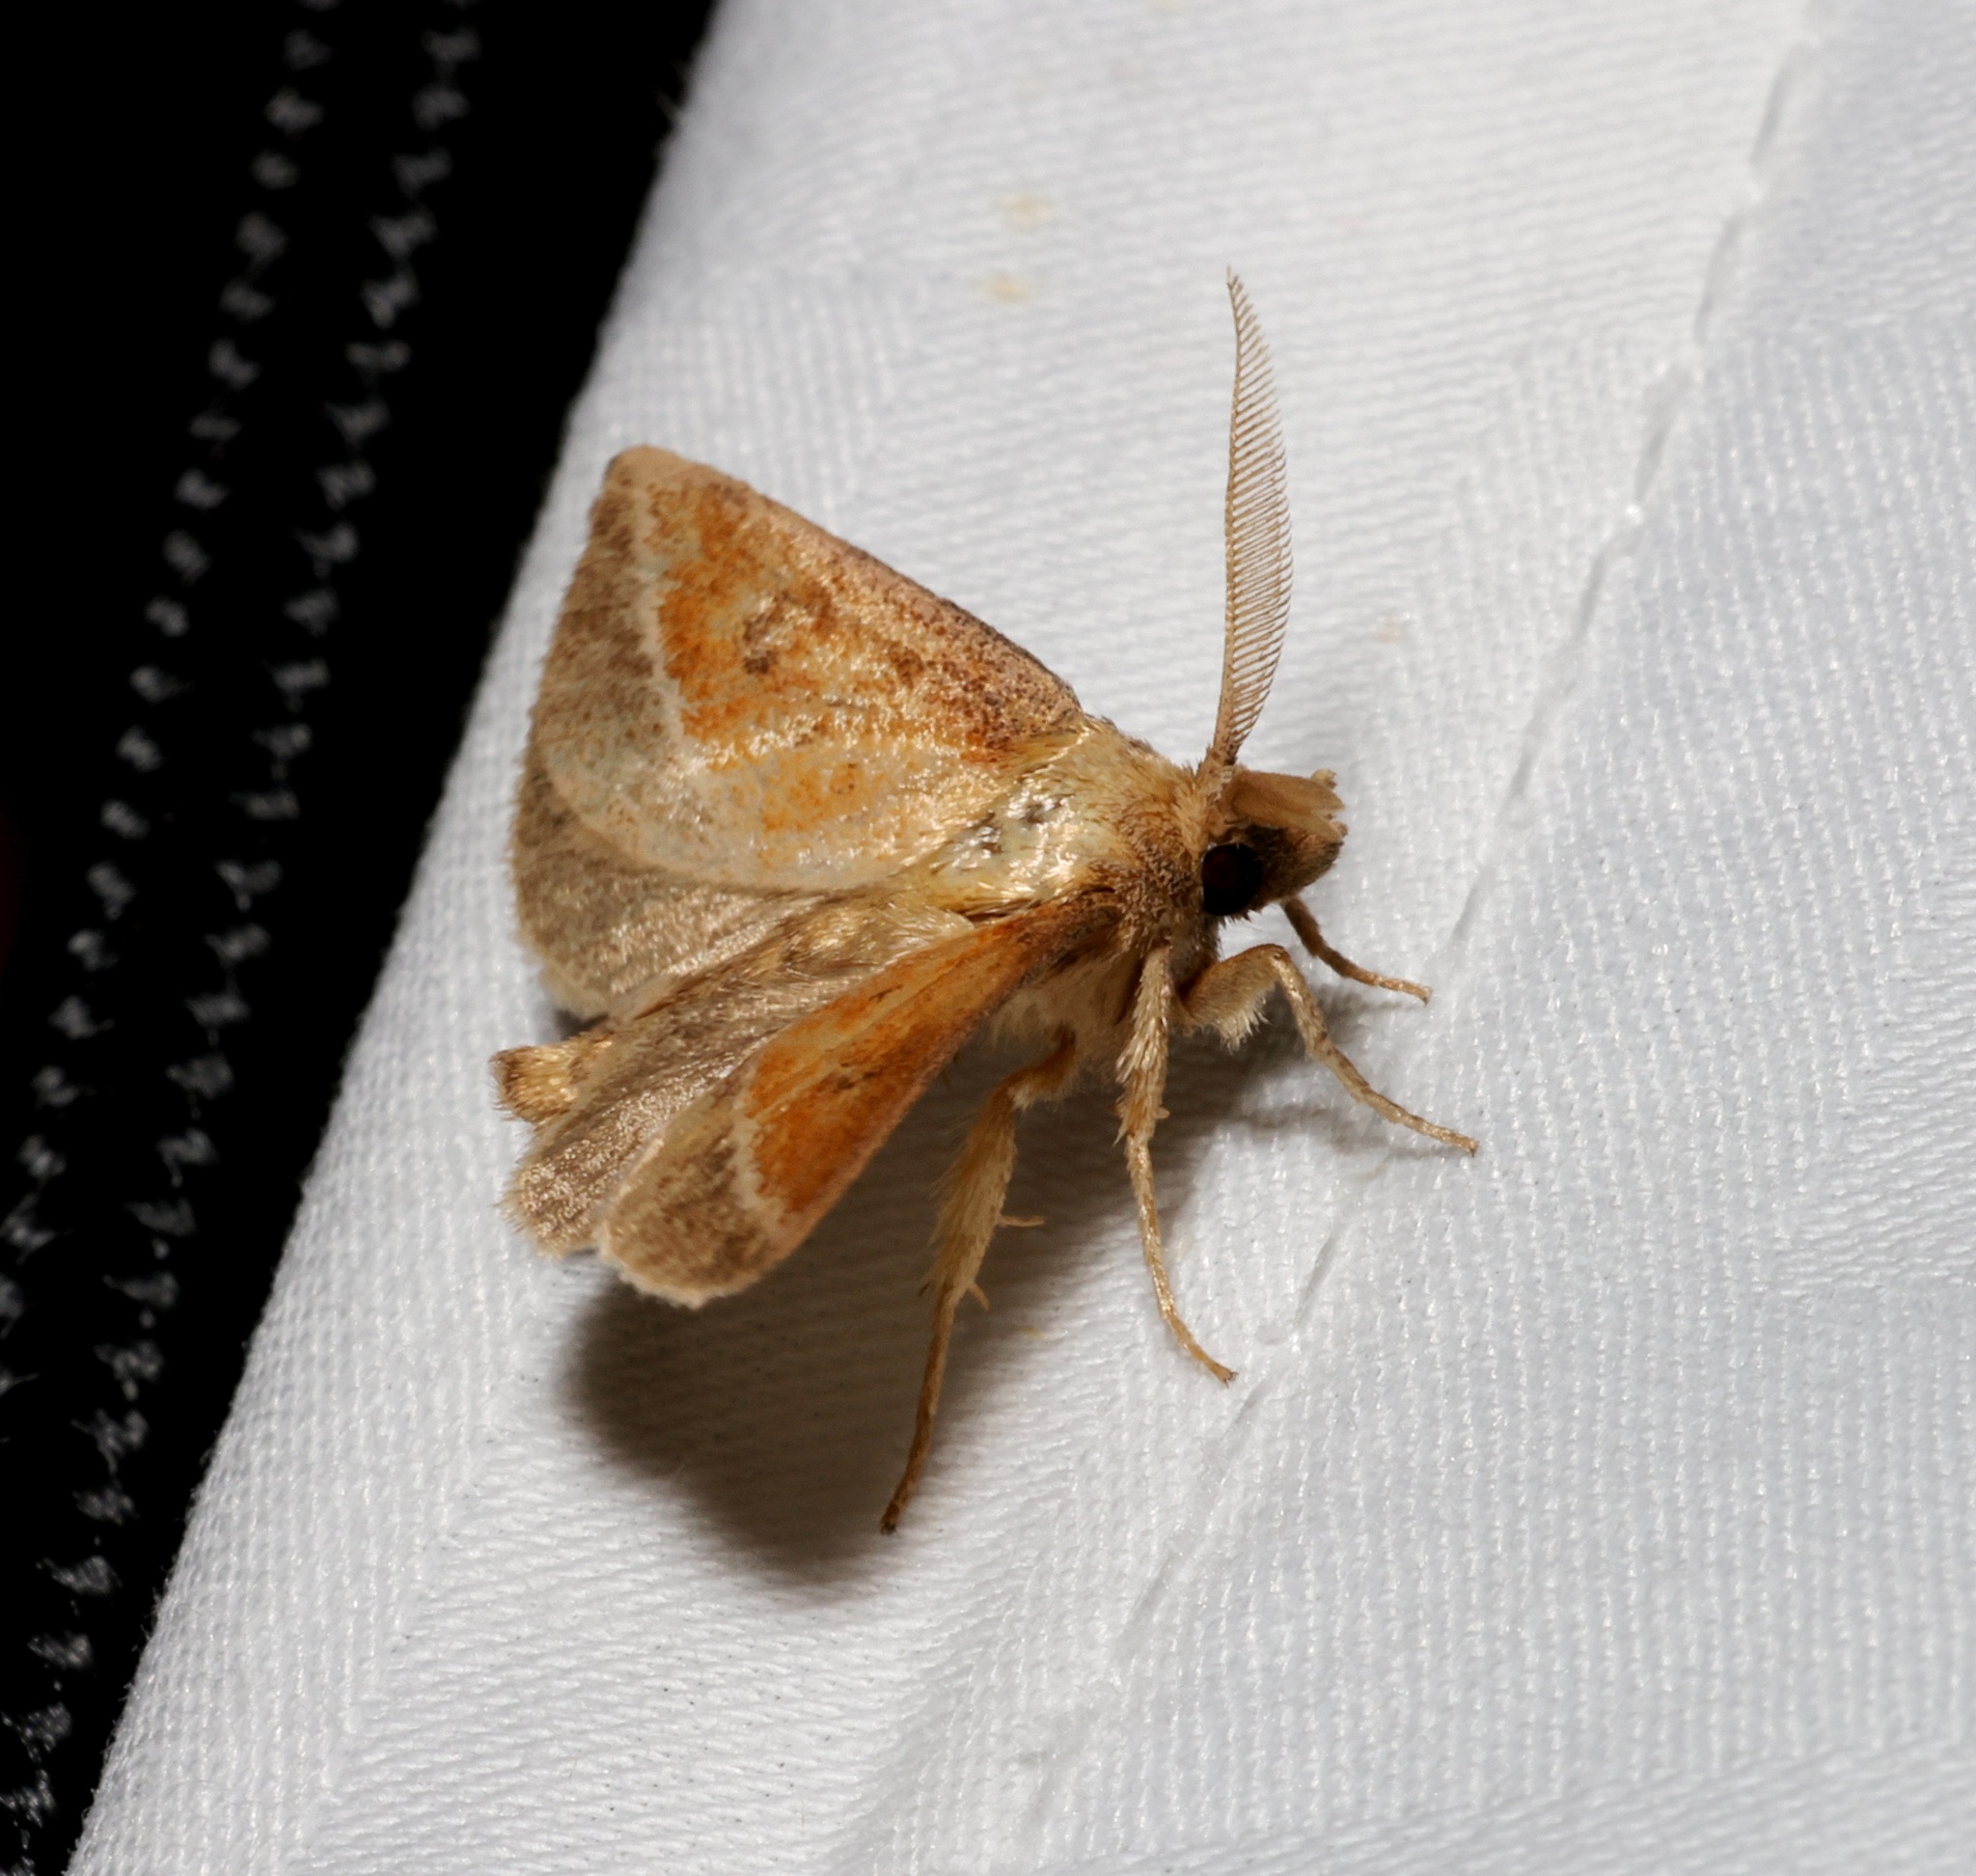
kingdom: Animalia
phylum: Arthropoda
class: Insecta
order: Lepidoptera
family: Limacodidae
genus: Oxyplax
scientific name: Oxyplax pallivitta
